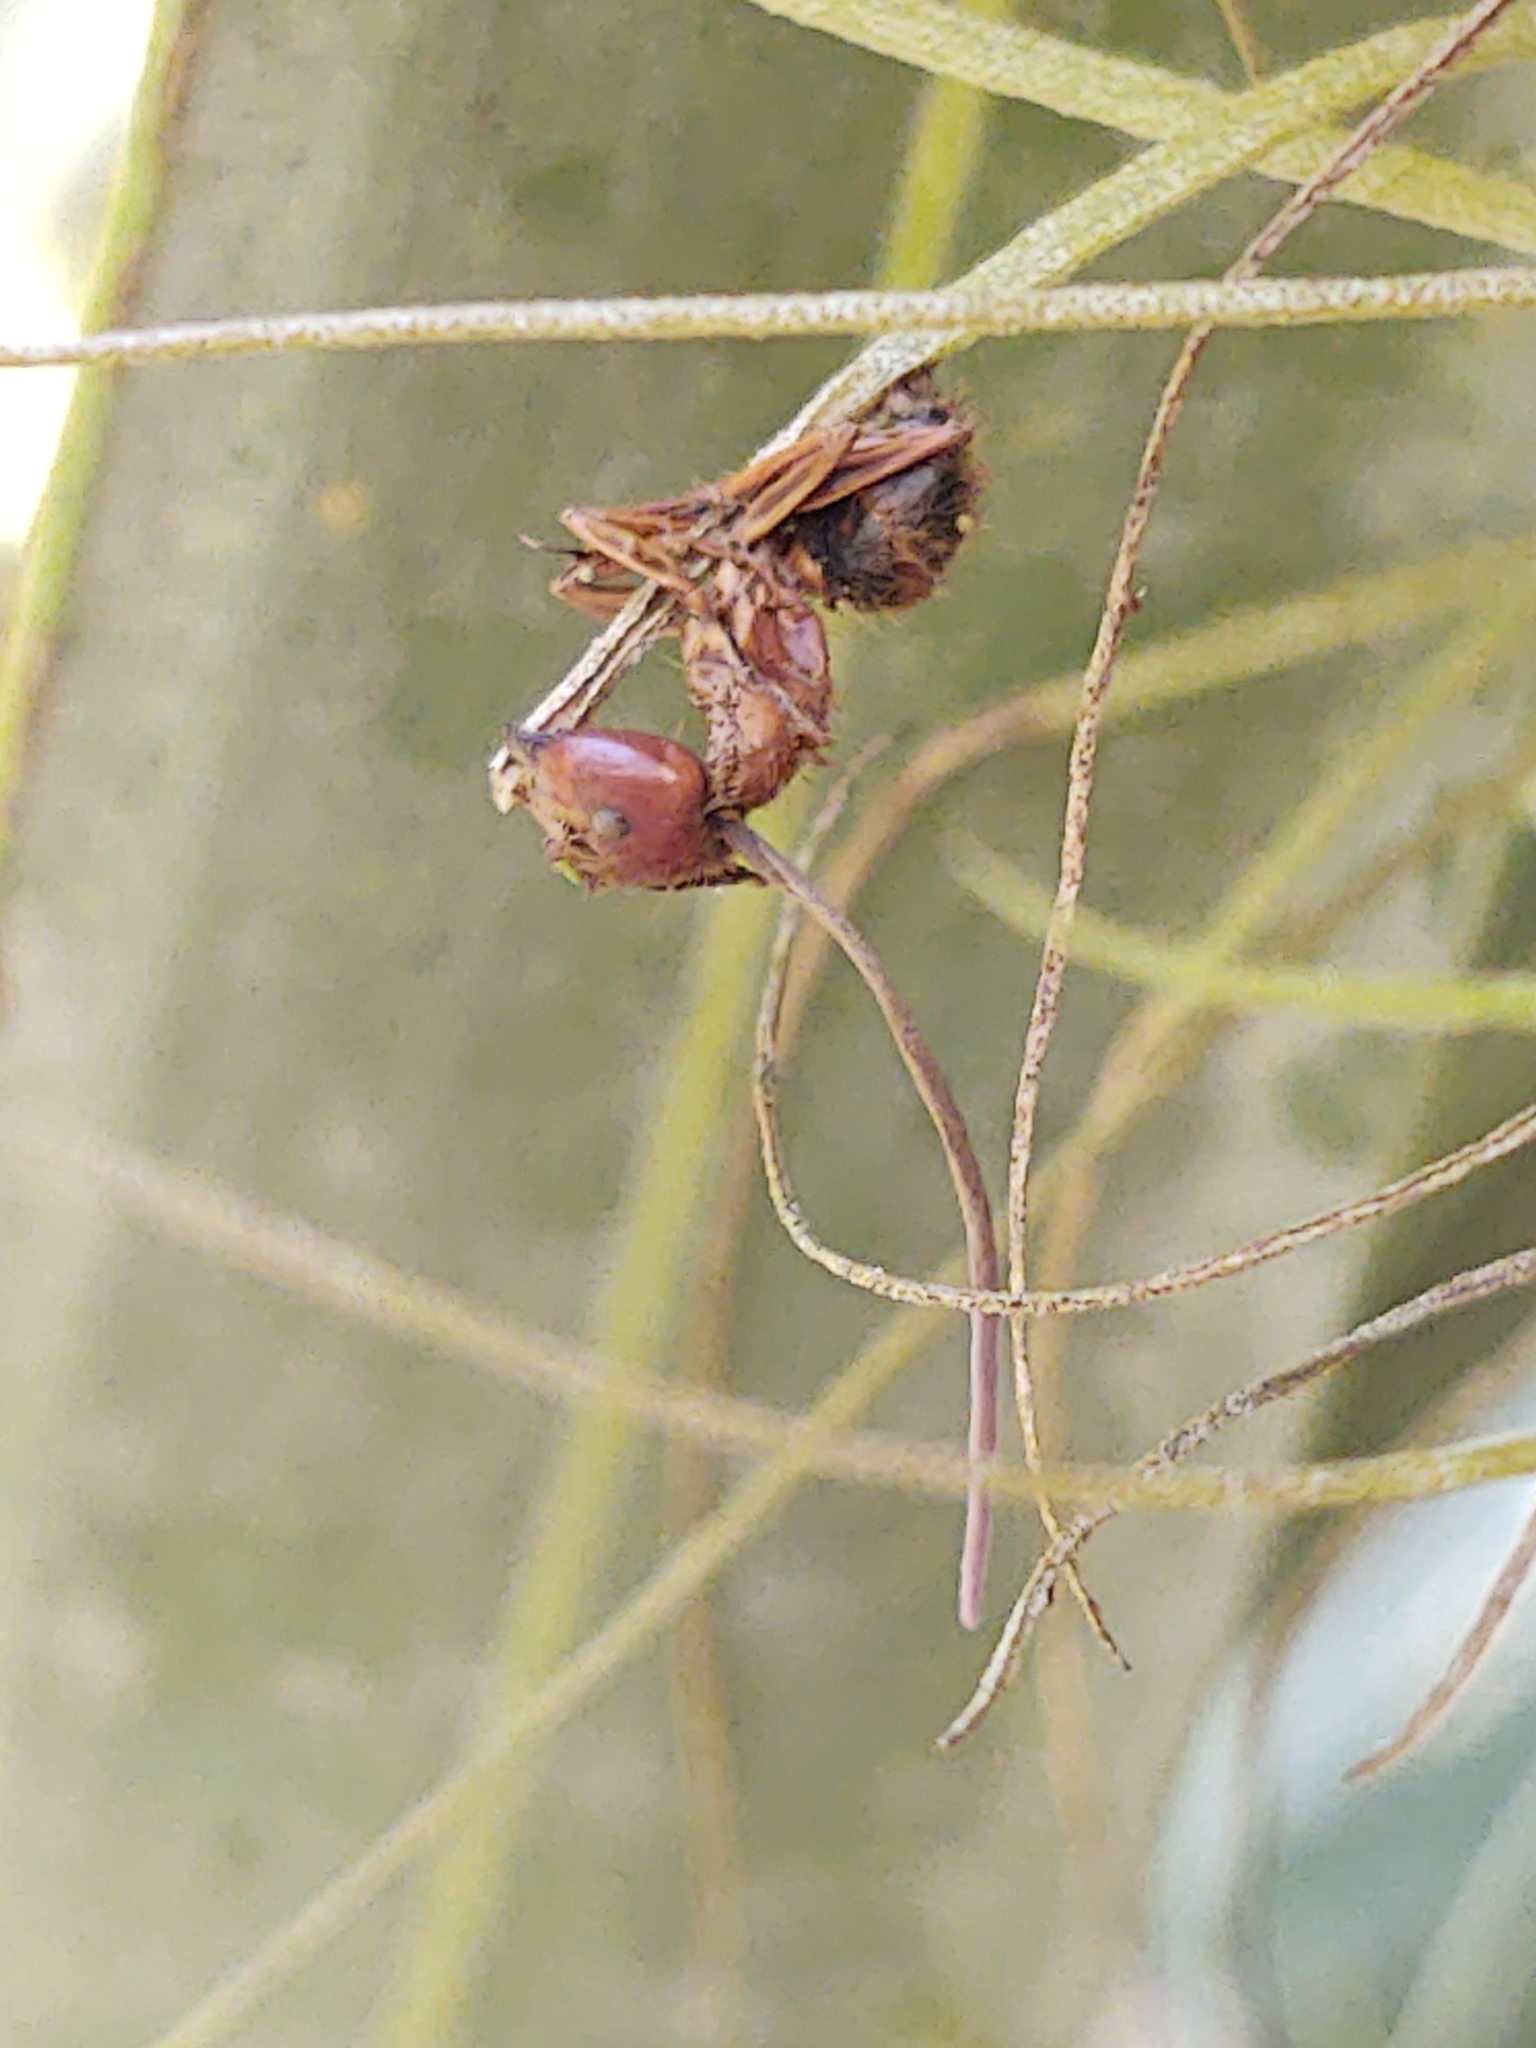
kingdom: Fungi
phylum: Ascomycota
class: Sordariomycetes
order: Hypocreales
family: Ophiocordycipitaceae
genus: Ophiocordyceps
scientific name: Ophiocordyceps camponoti-floridani
